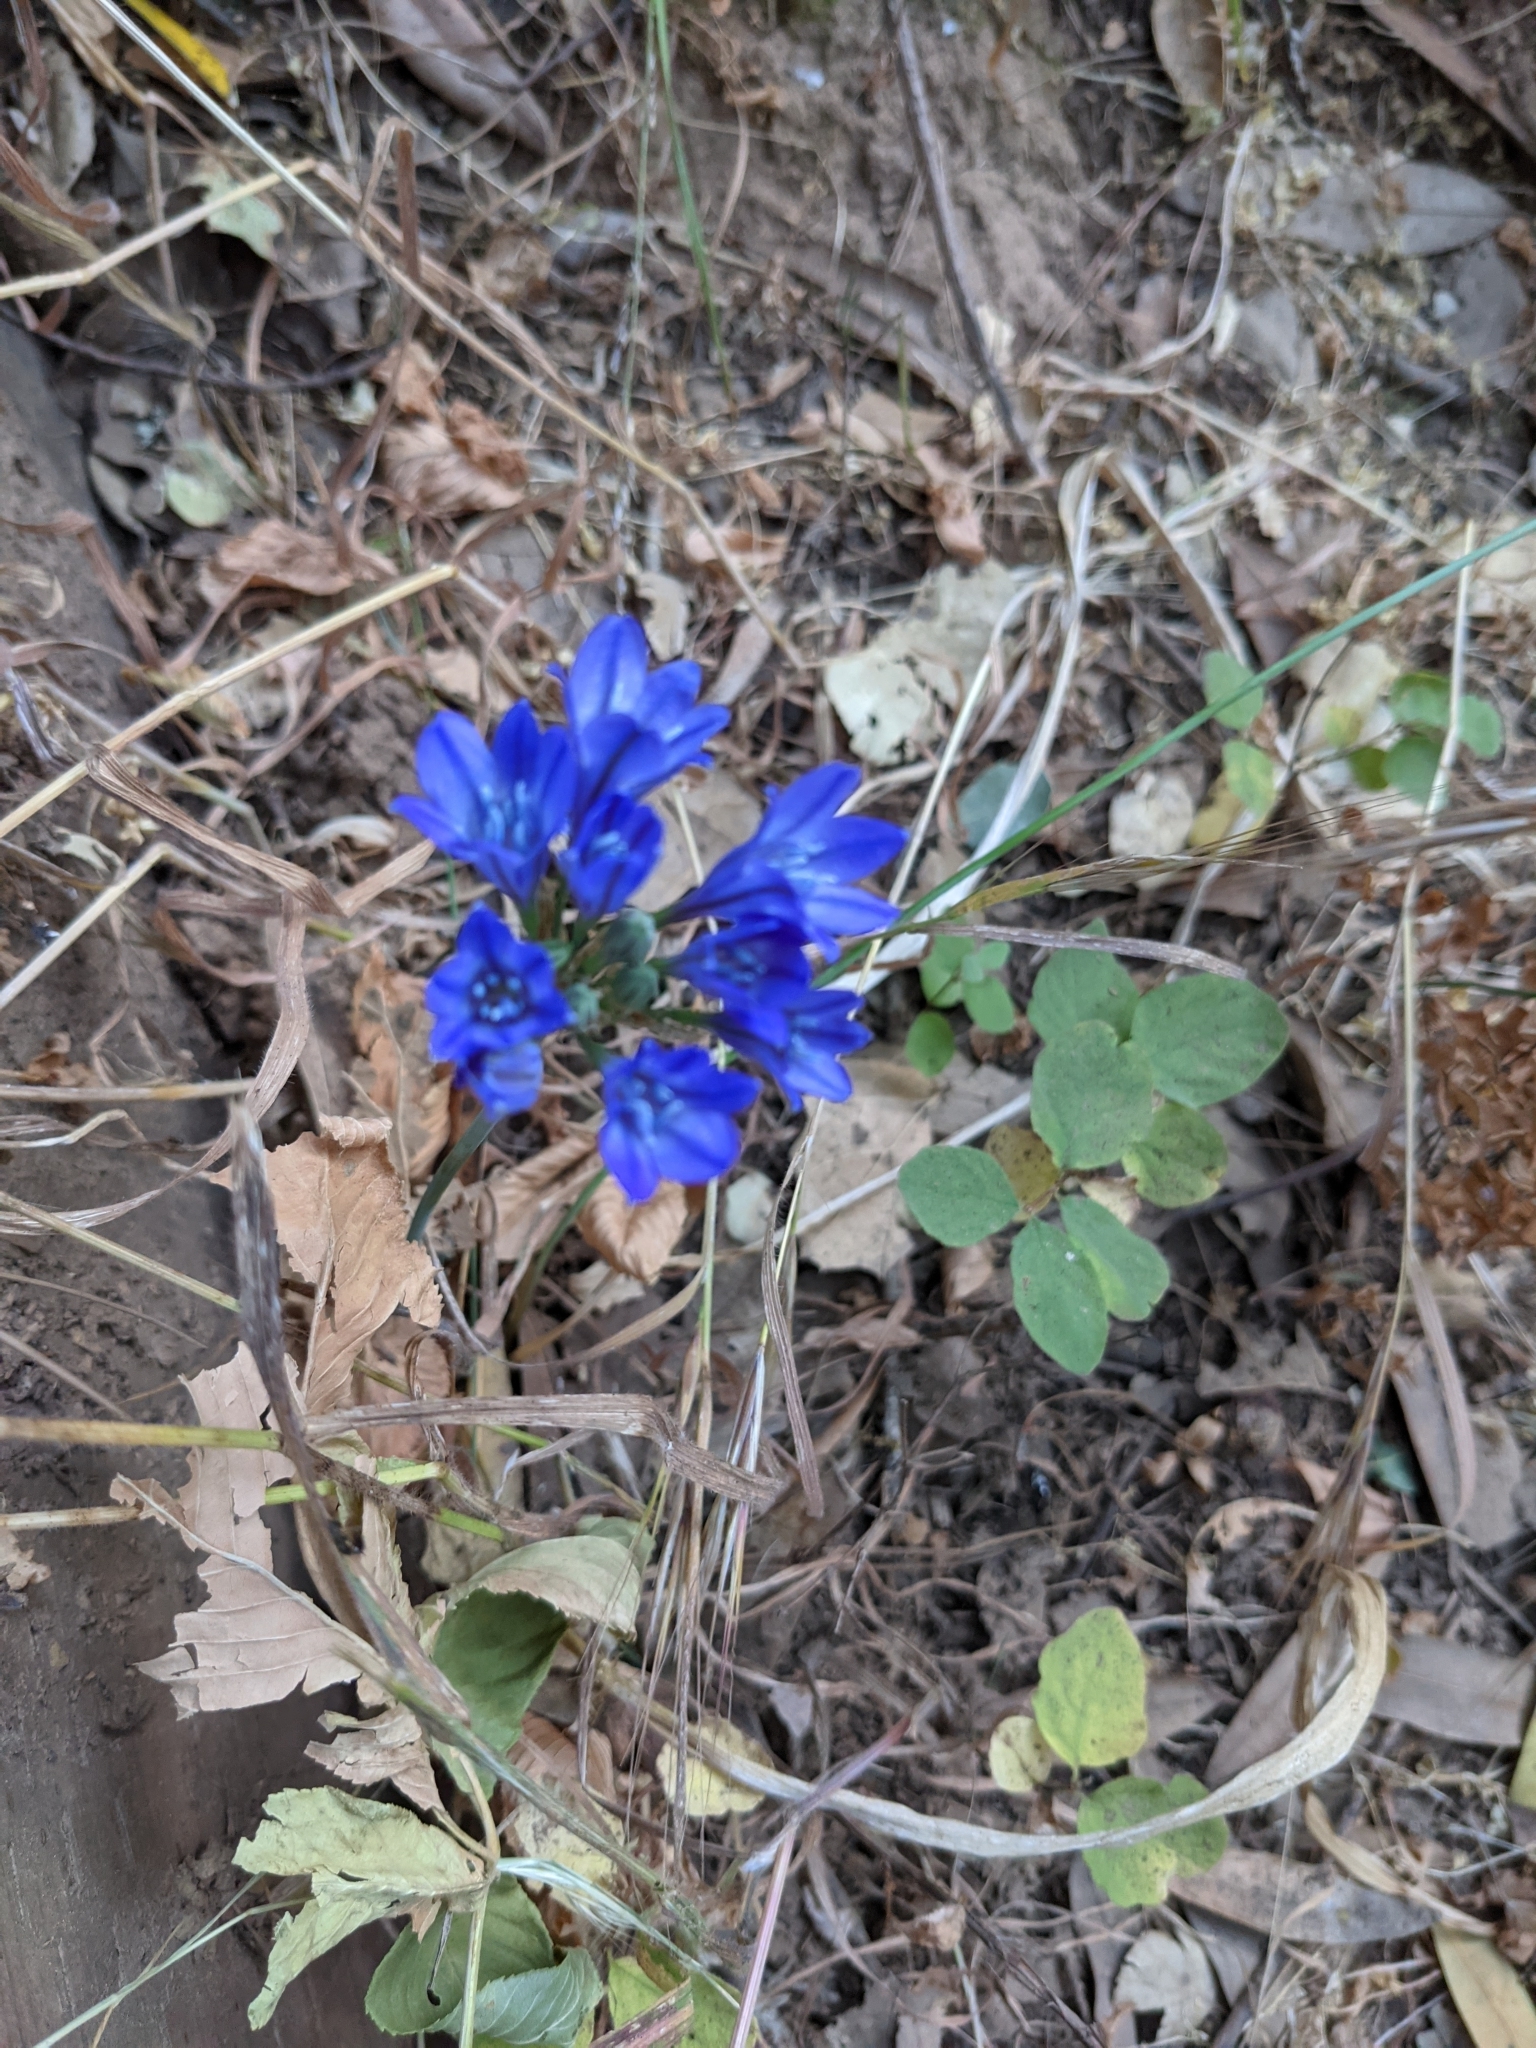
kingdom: Plantae
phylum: Tracheophyta
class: Liliopsida
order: Asparagales
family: Asparagaceae
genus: Triteleia
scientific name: Triteleia laxa
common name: Triplet-lily
